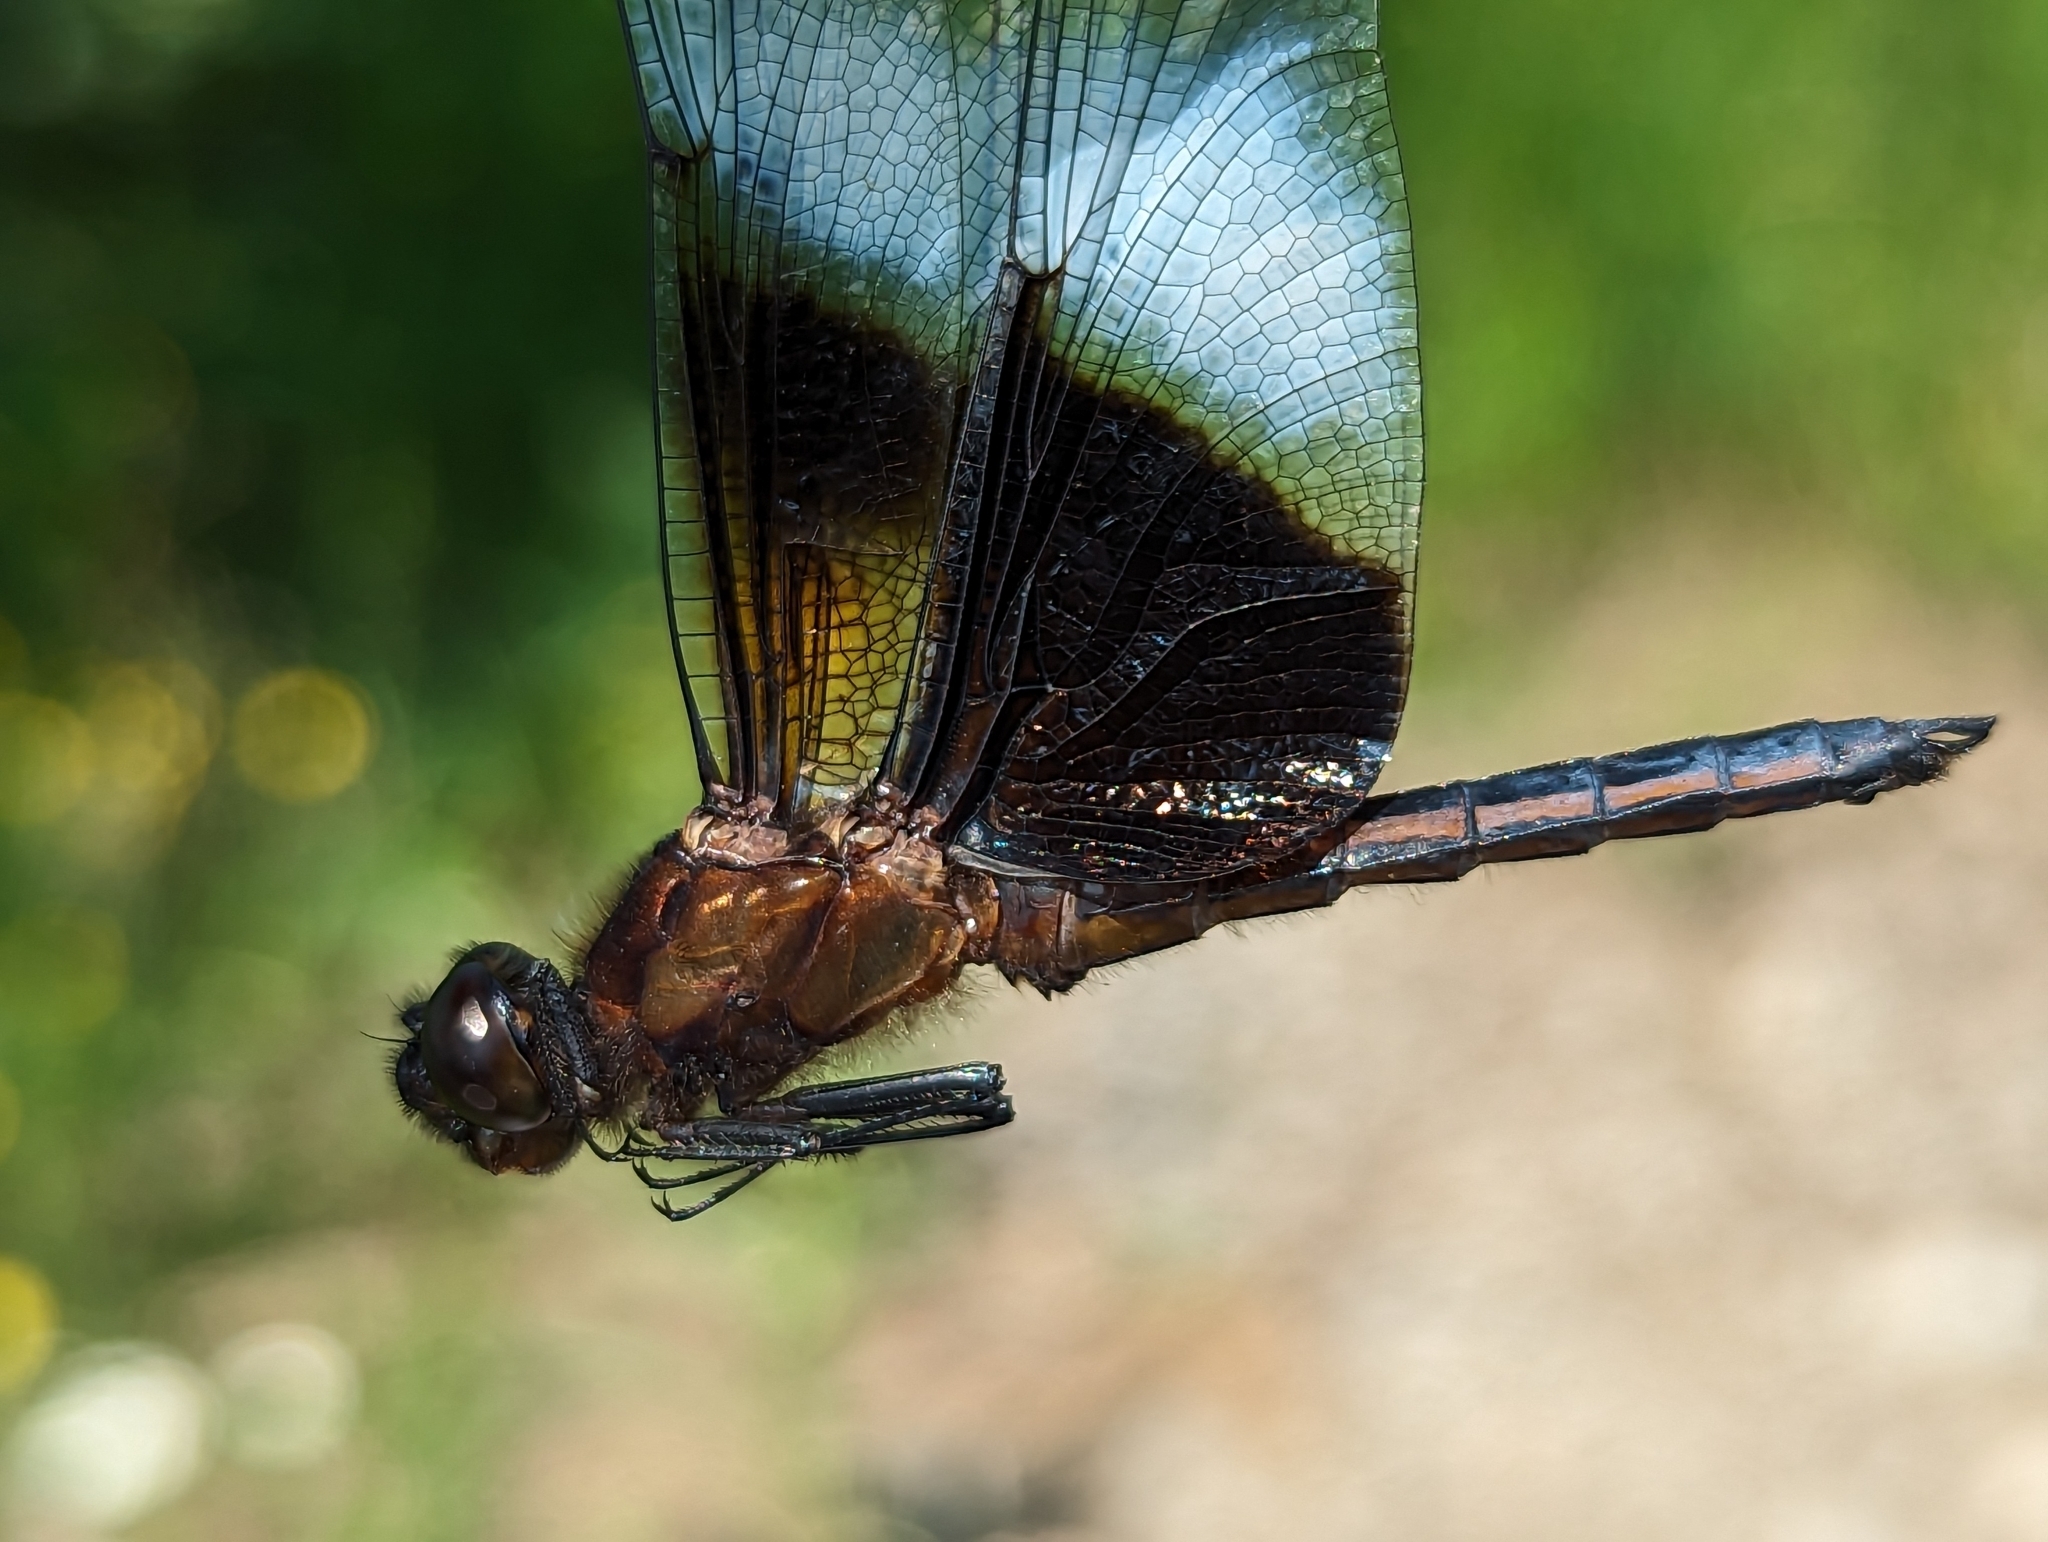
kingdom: Animalia
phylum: Arthropoda
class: Insecta
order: Odonata
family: Libellulidae
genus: Libellula
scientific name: Libellula luctuosa
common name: Widow skimmer
